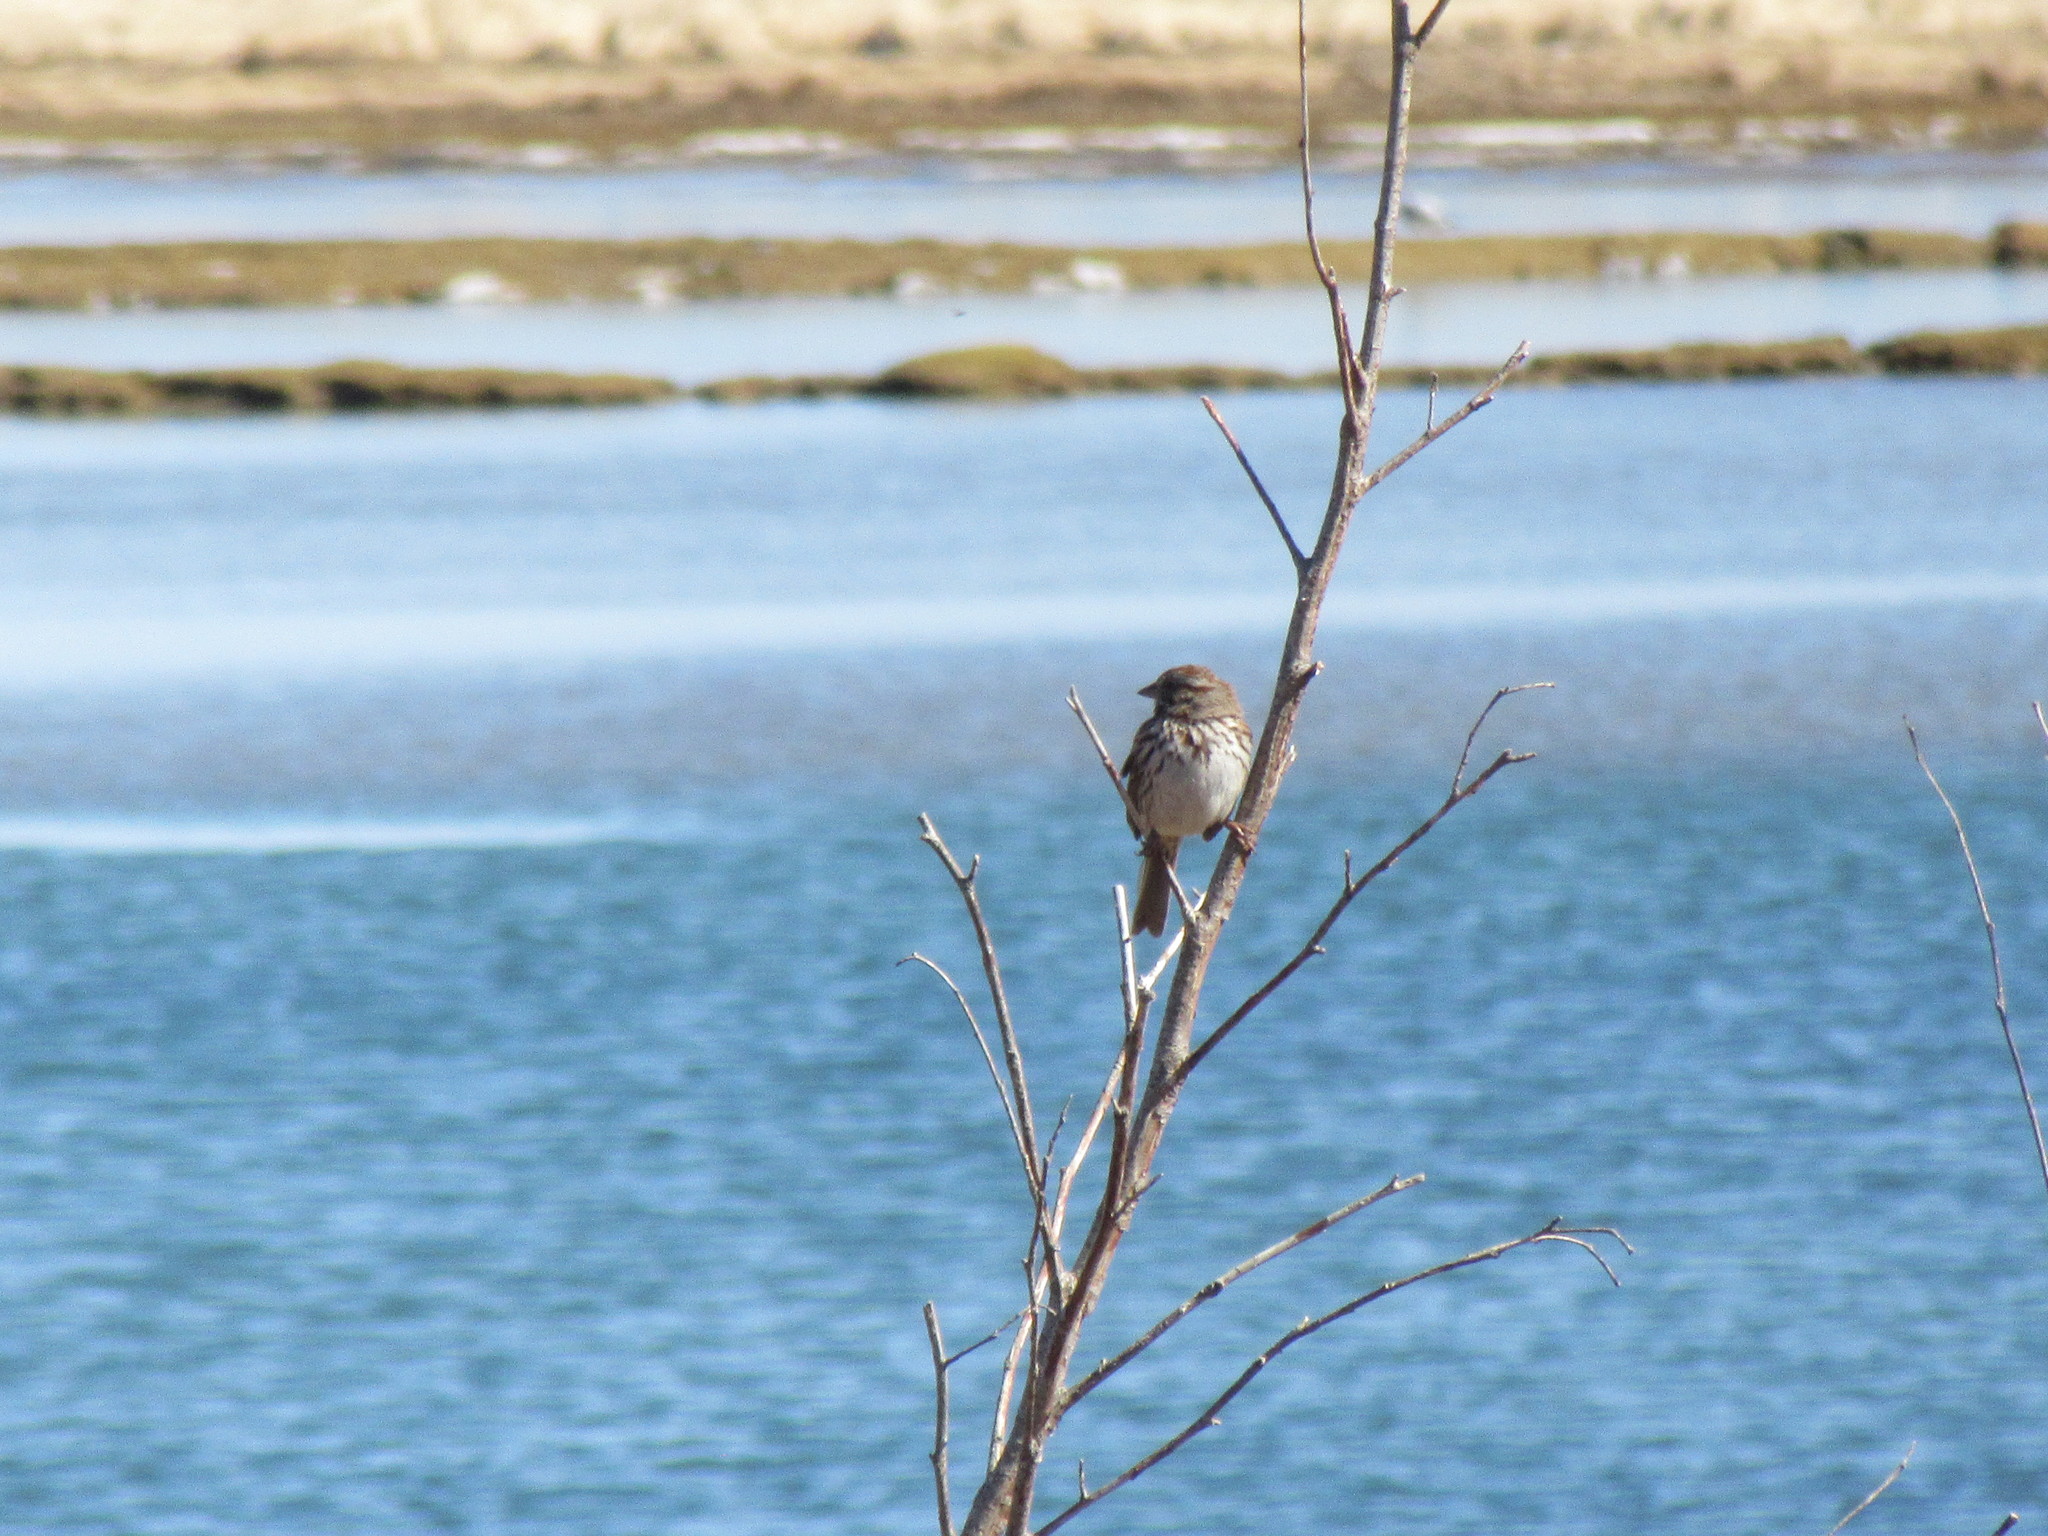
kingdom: Animalia
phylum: Chordata
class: Aves
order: Passeriformes
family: Passerellidae
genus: Melospiza
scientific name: Melospiza melodia
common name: Song sparrow
